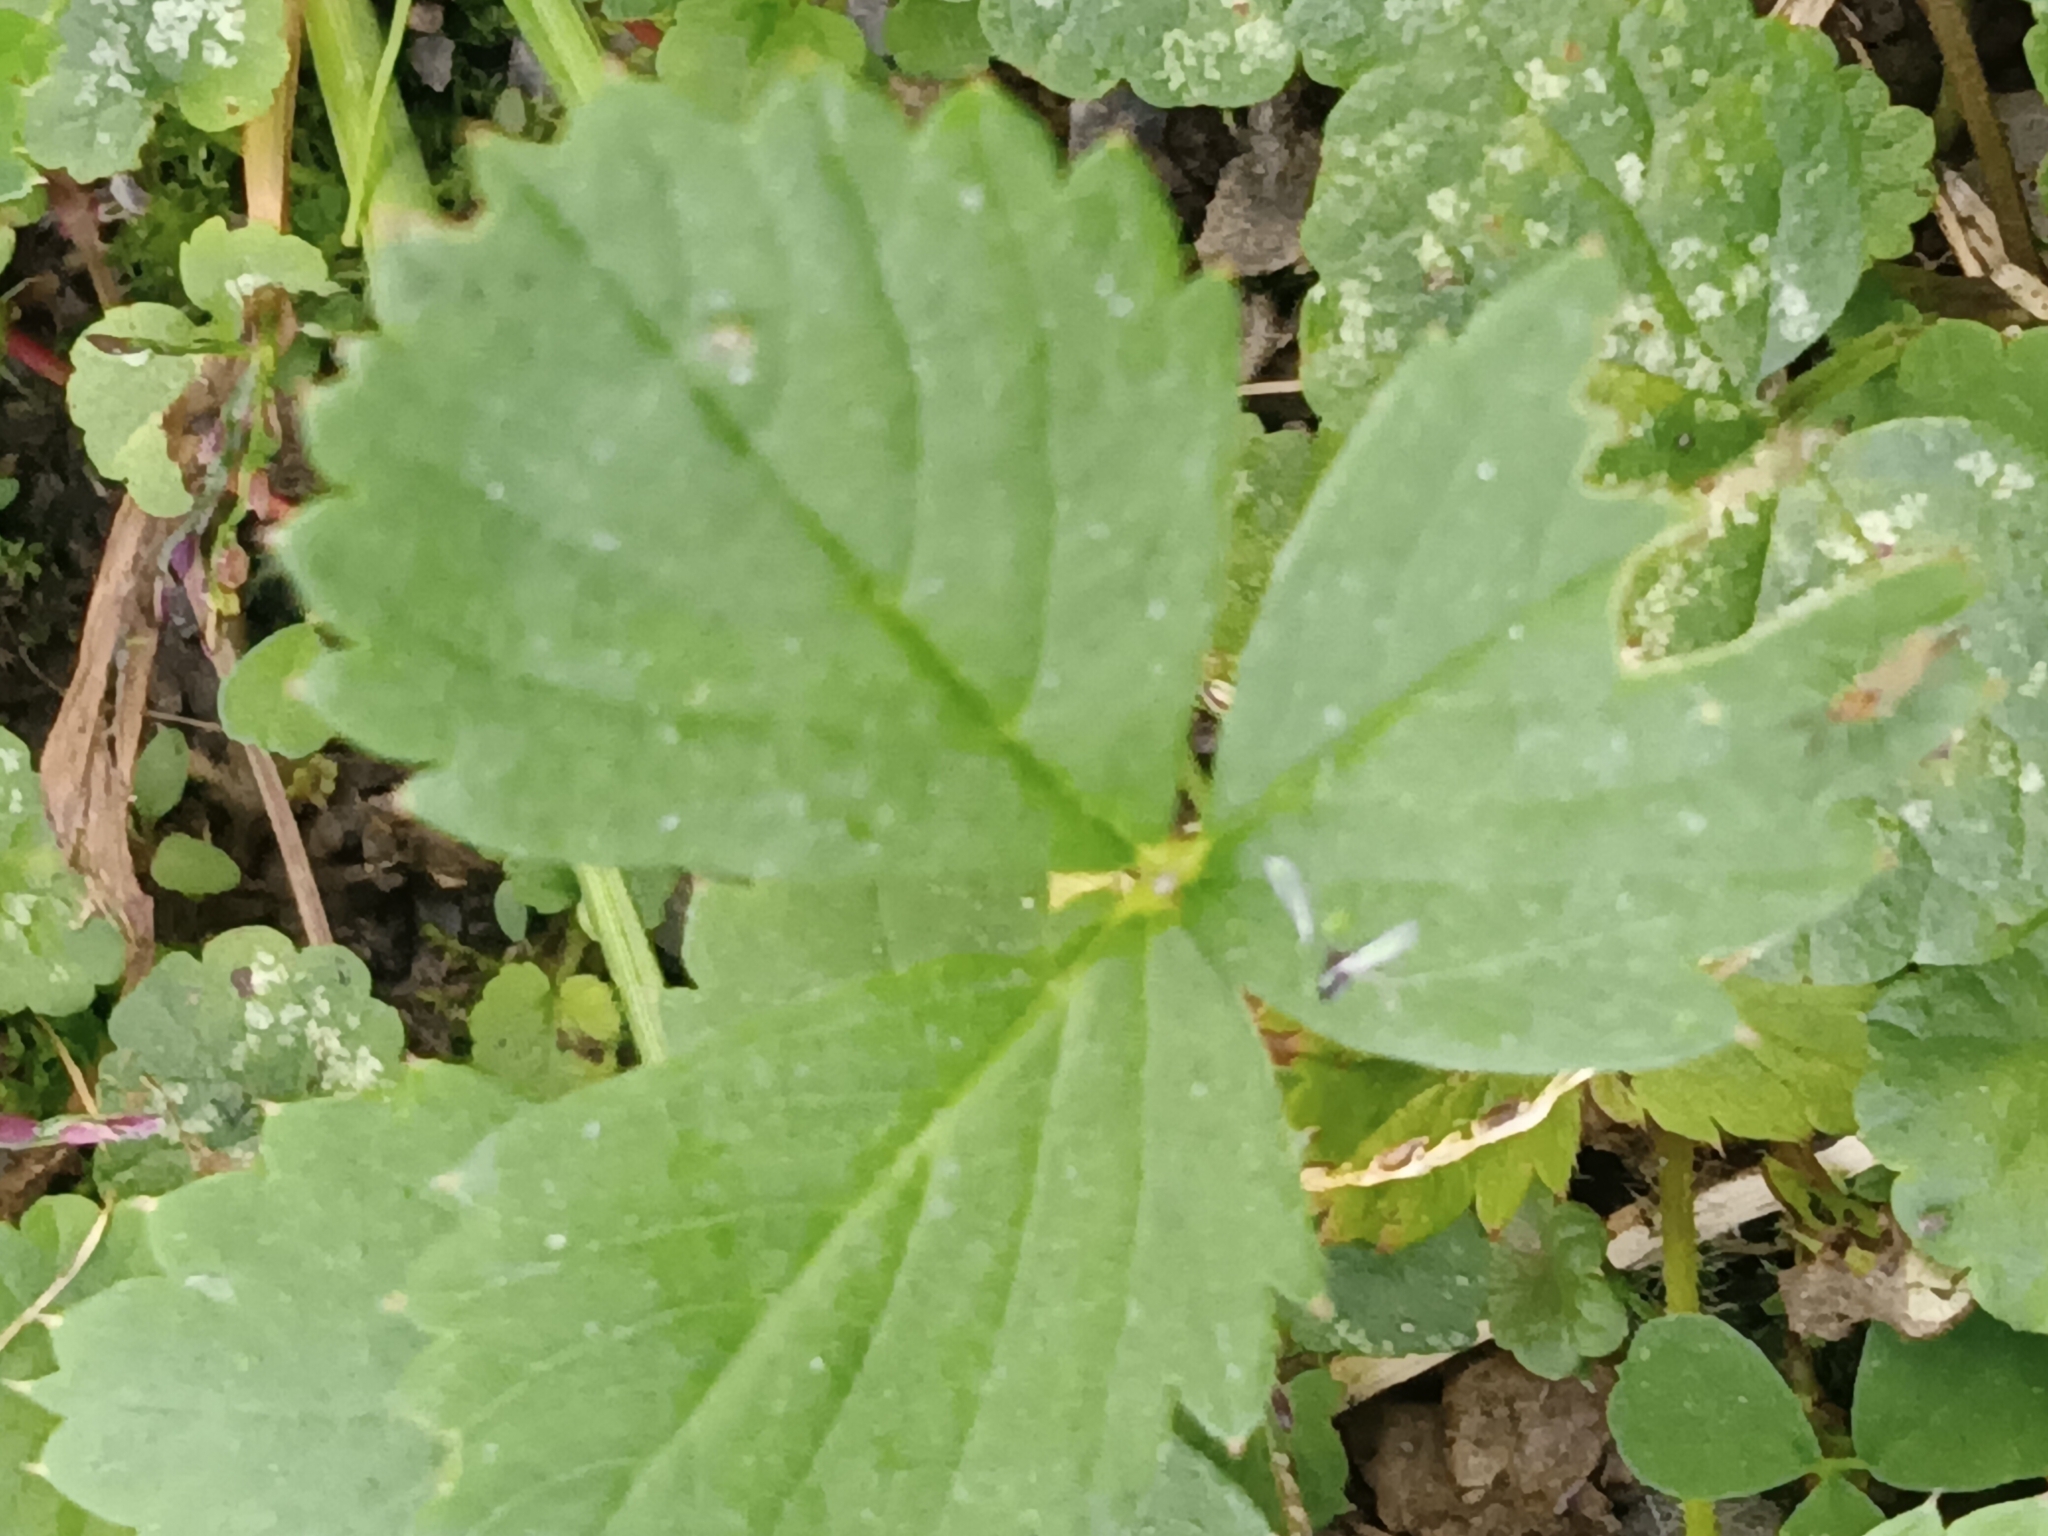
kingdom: Plantae
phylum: Tracheophyta
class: Magnoliopsida
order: Rosales
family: Rosaceae
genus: Fragaria
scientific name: Fragaria virginiana
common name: Thickleaved wild strawberry
